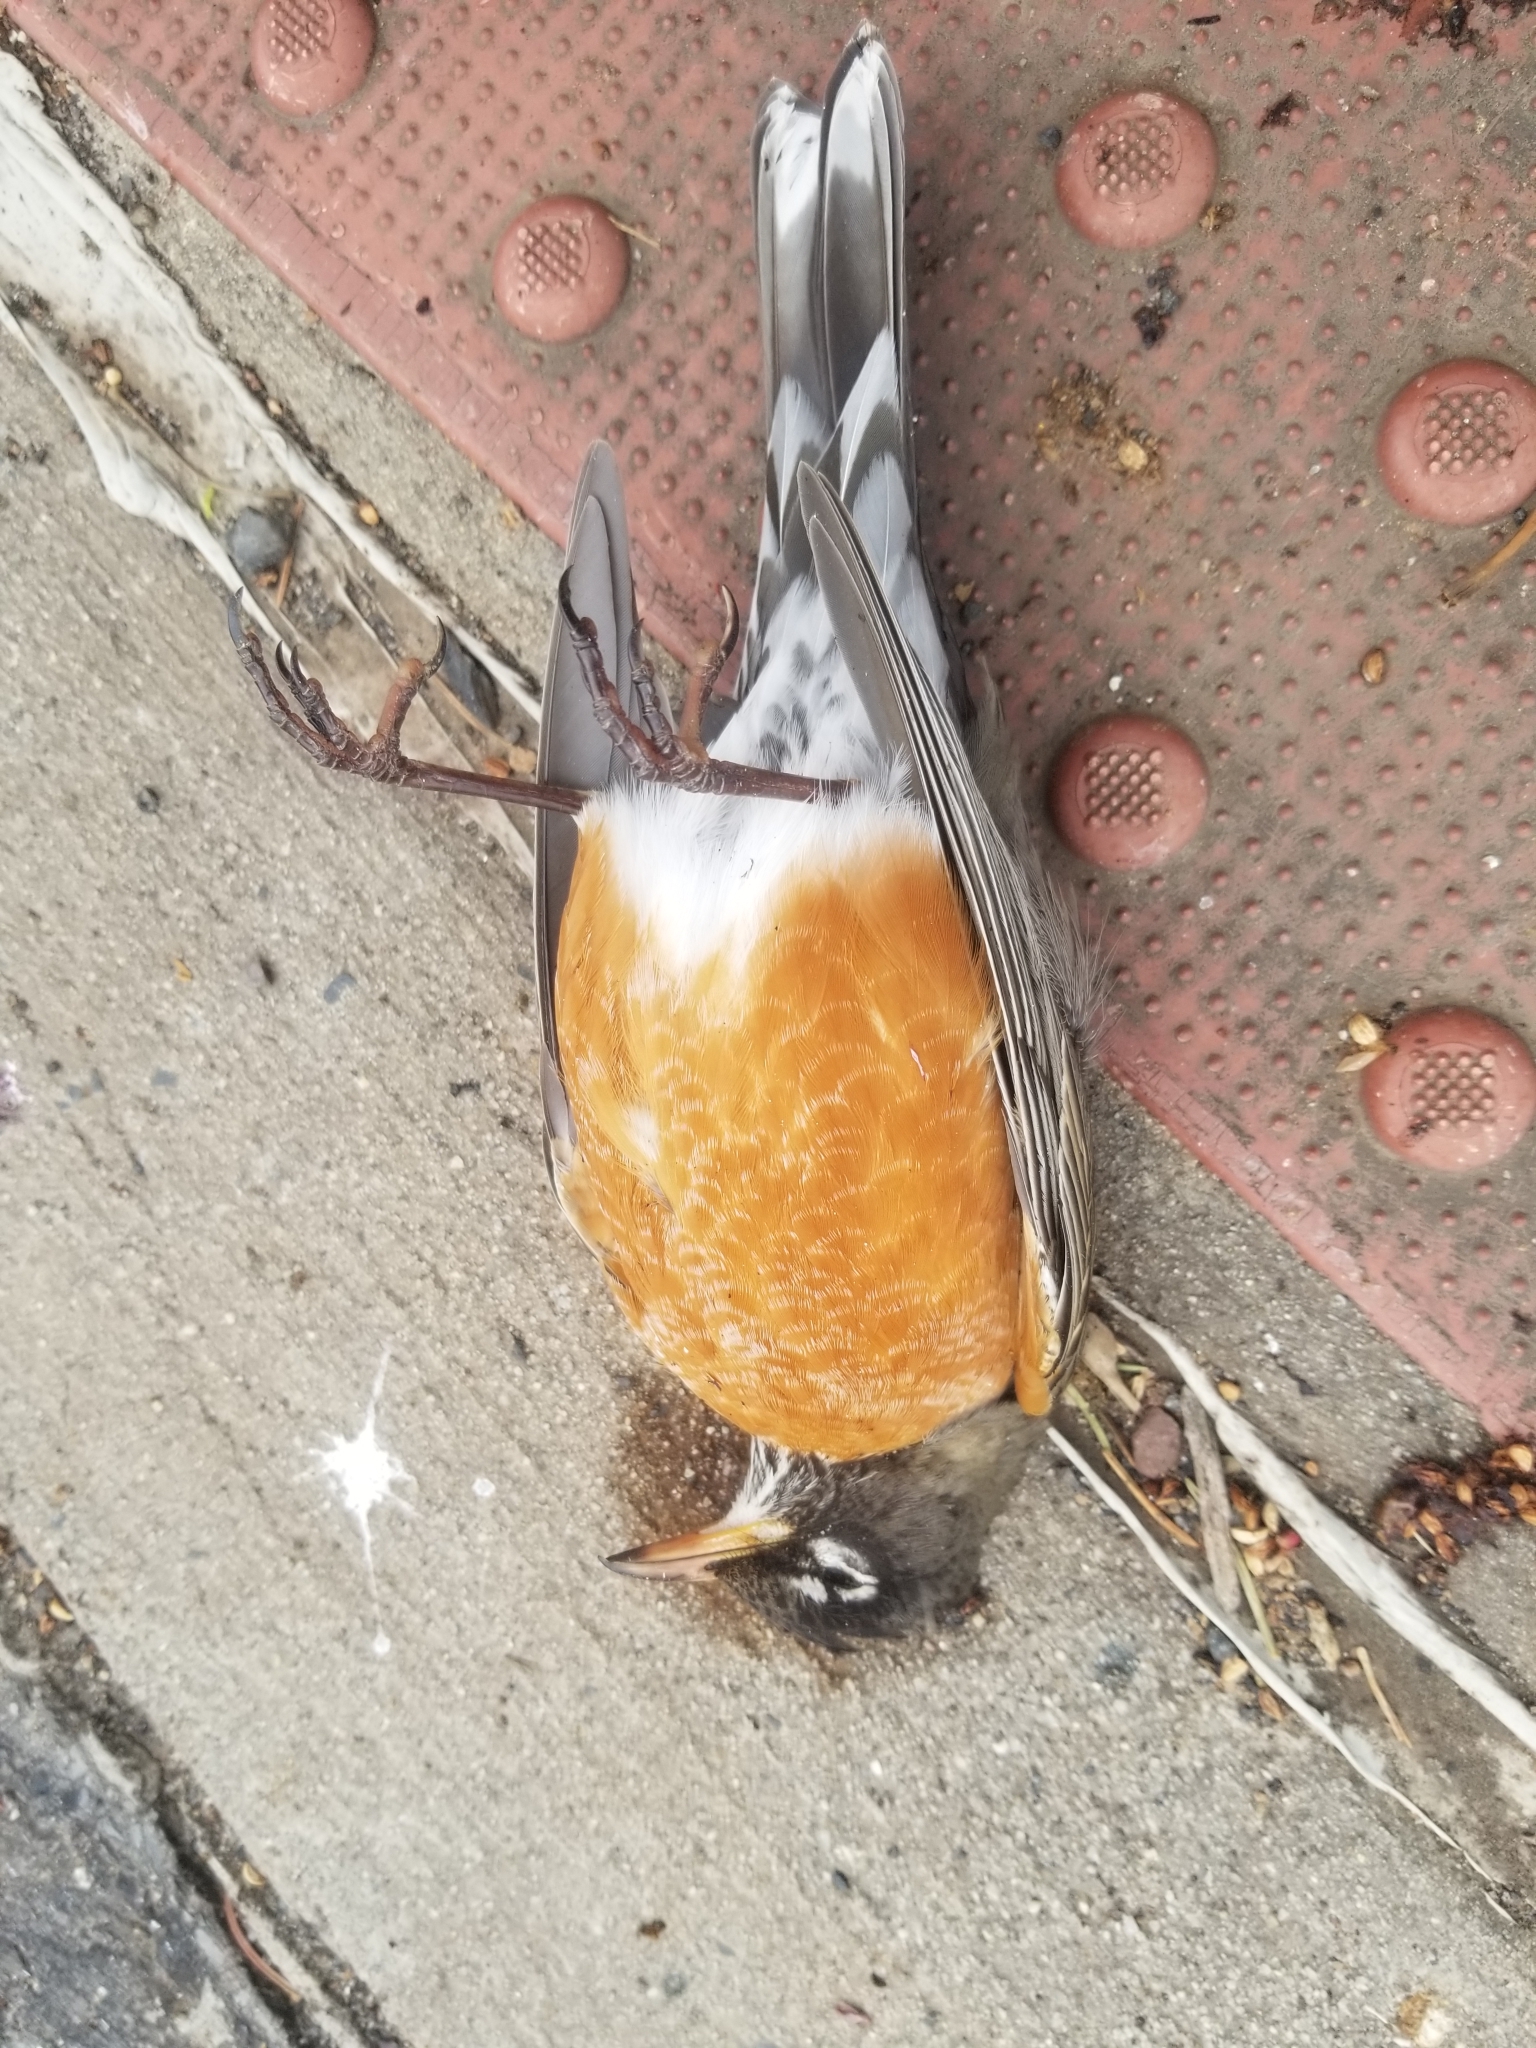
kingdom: Animalia
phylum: Chordata
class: Aves
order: Passeriformes
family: Turdidae
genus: Turdus
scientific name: Turdus migratorius
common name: American robin
